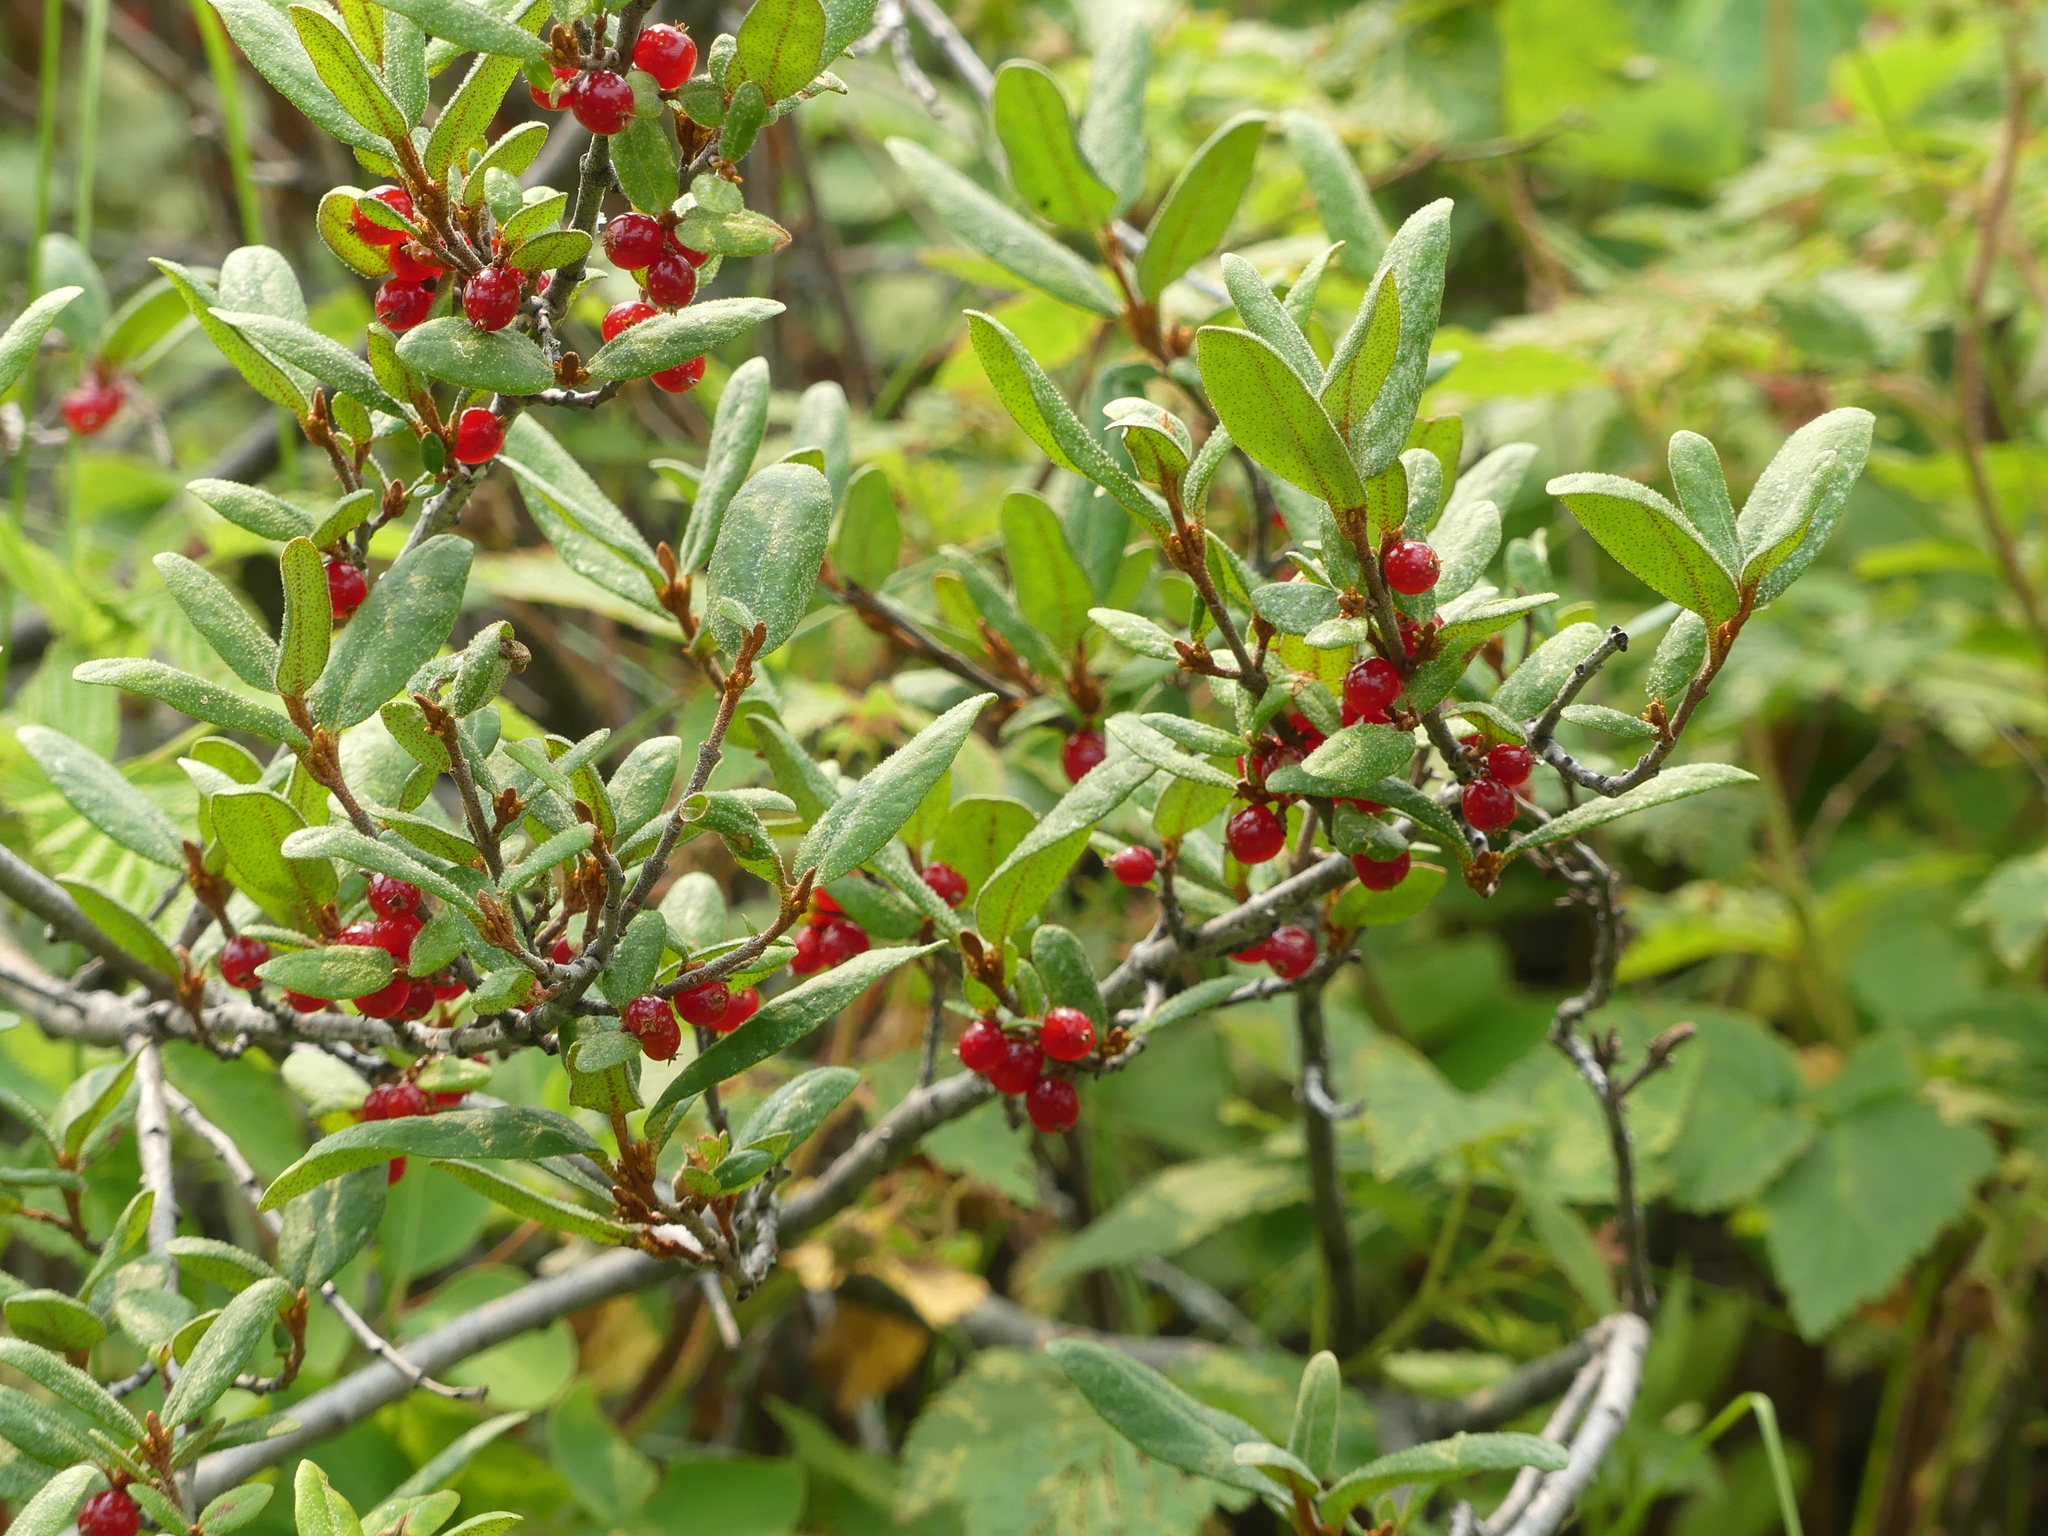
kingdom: Plantae
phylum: Tracheophyta
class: Magnoliopsida
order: Rosales
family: Elaeagnaceae
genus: Shepherdia
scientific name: Shepherdia canadensis
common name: Soapberry
